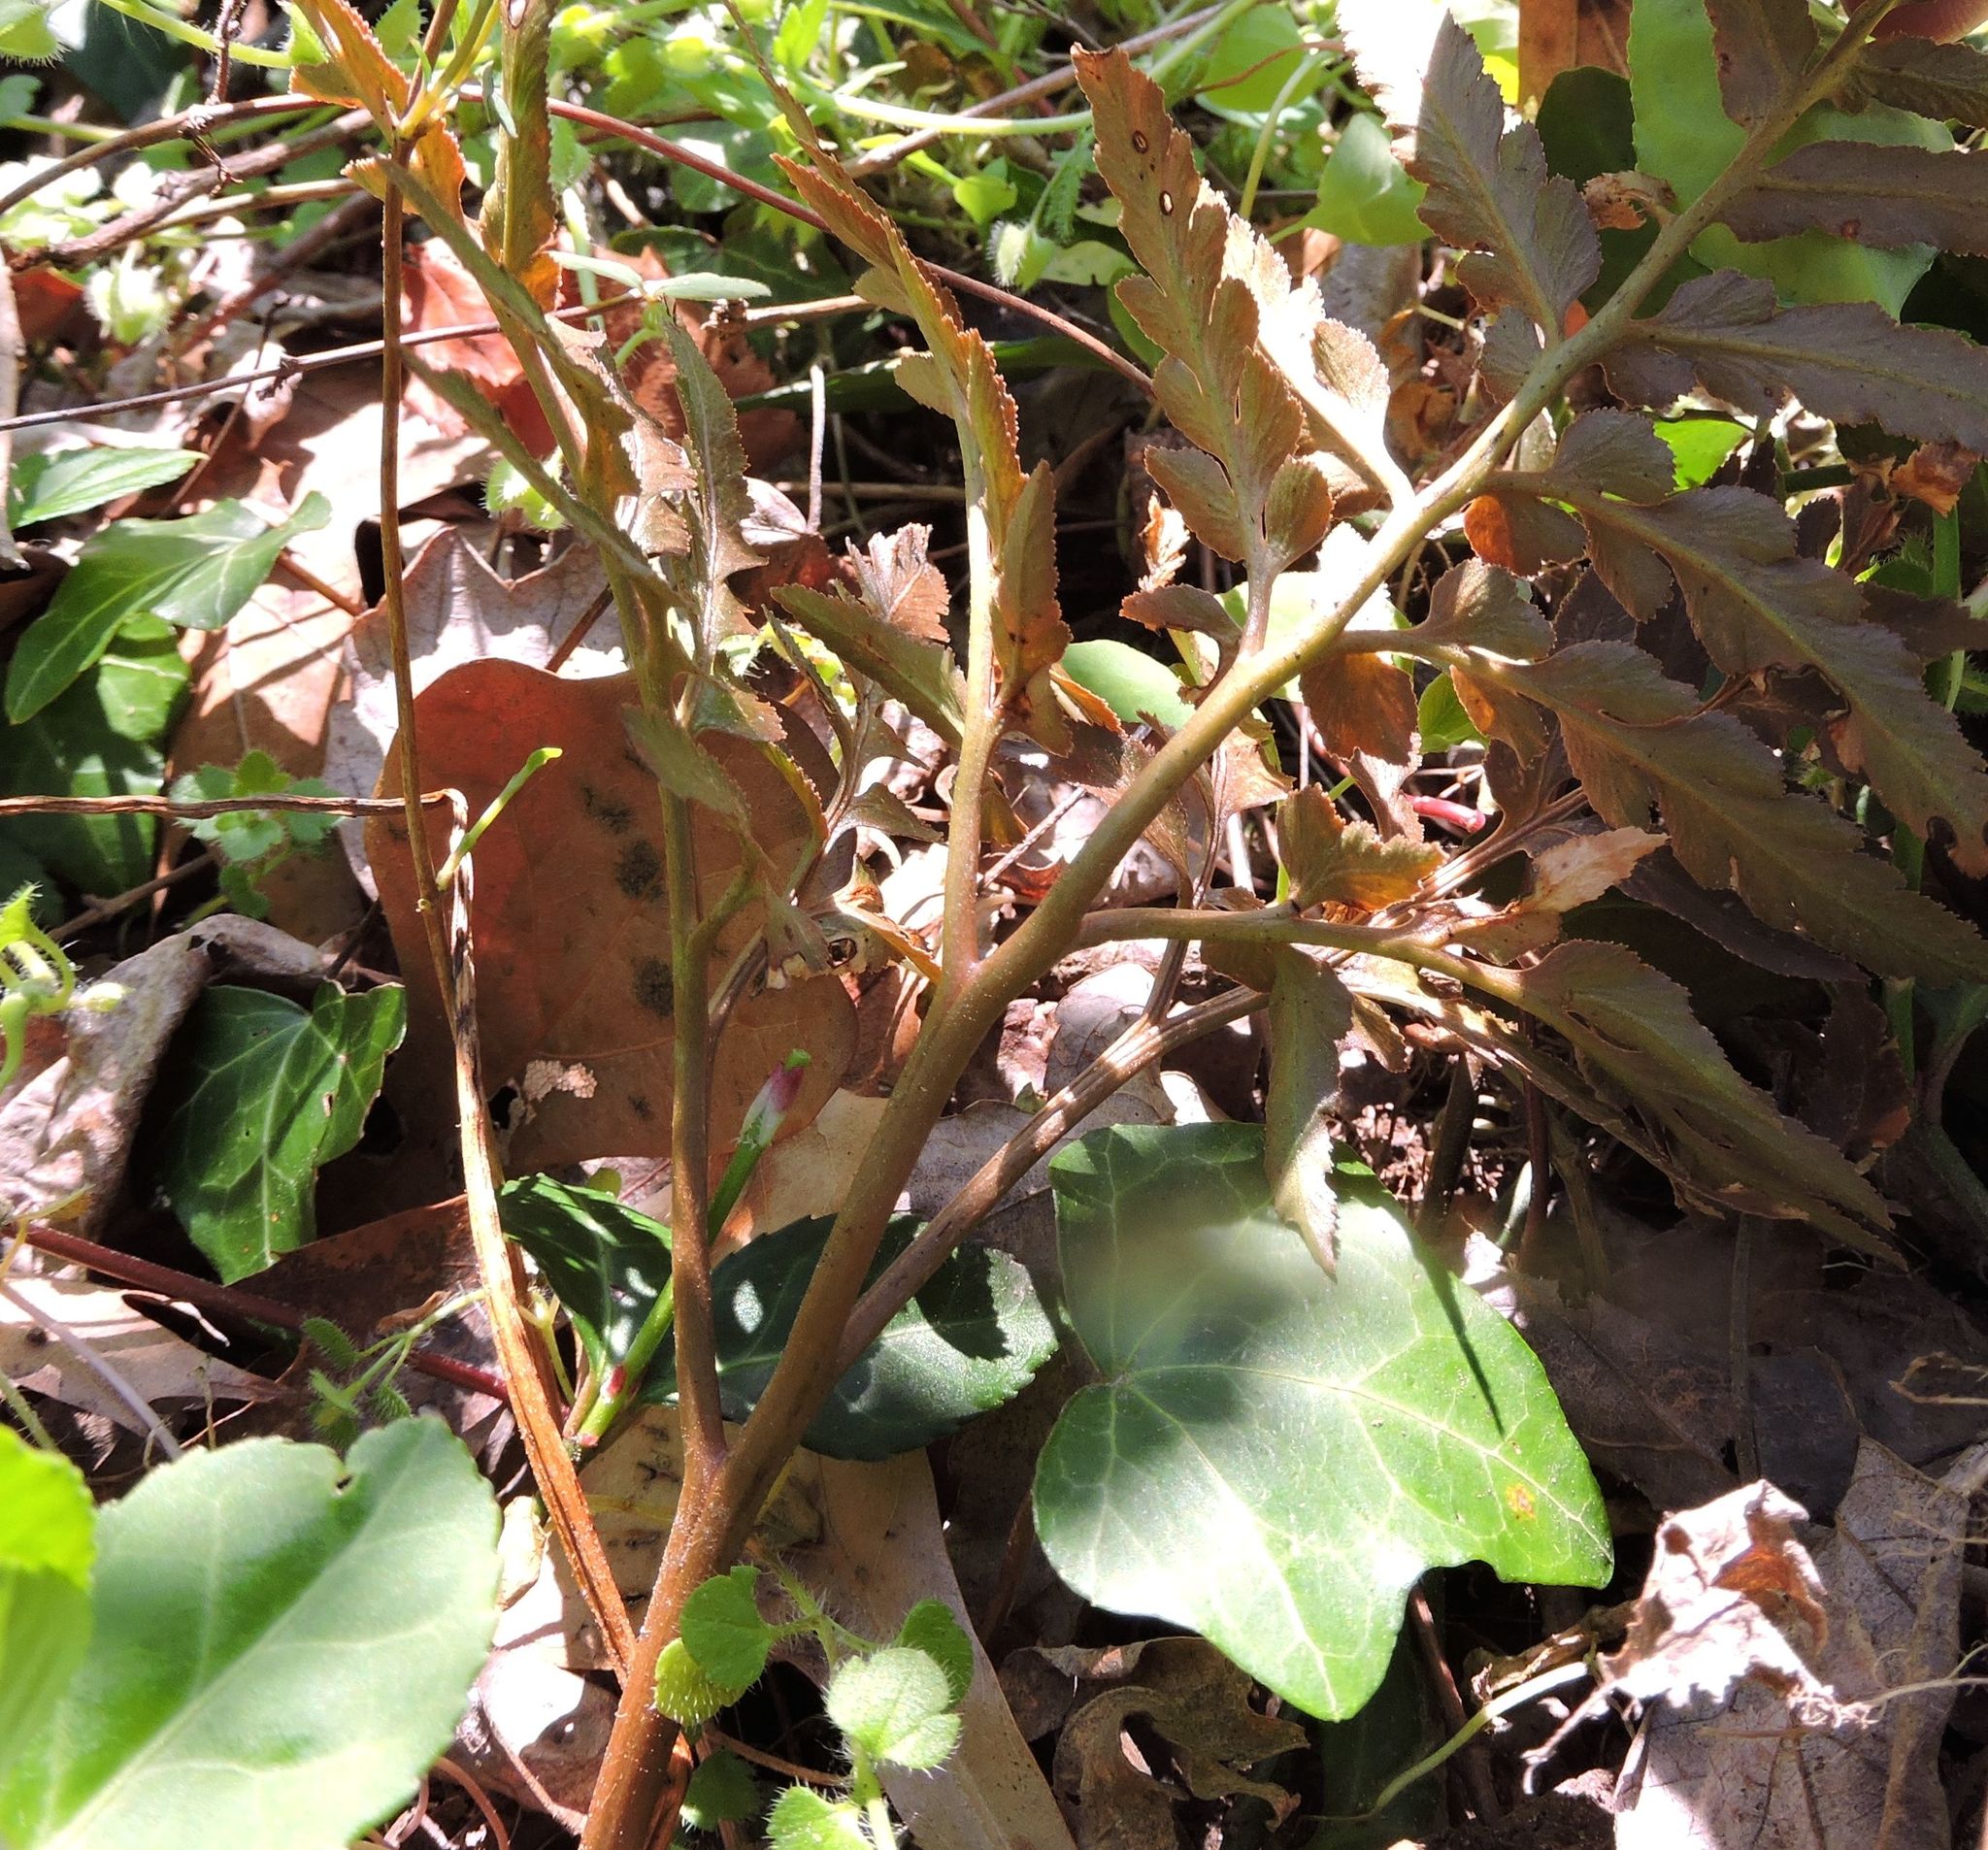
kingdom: Plantae
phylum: Tracheophyta
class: Polypodiopsida
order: Ophioglossales
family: Ophioglossaceae
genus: Sceptridium
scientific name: Sceptridium dissectum
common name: Cut-leaved grapefern
